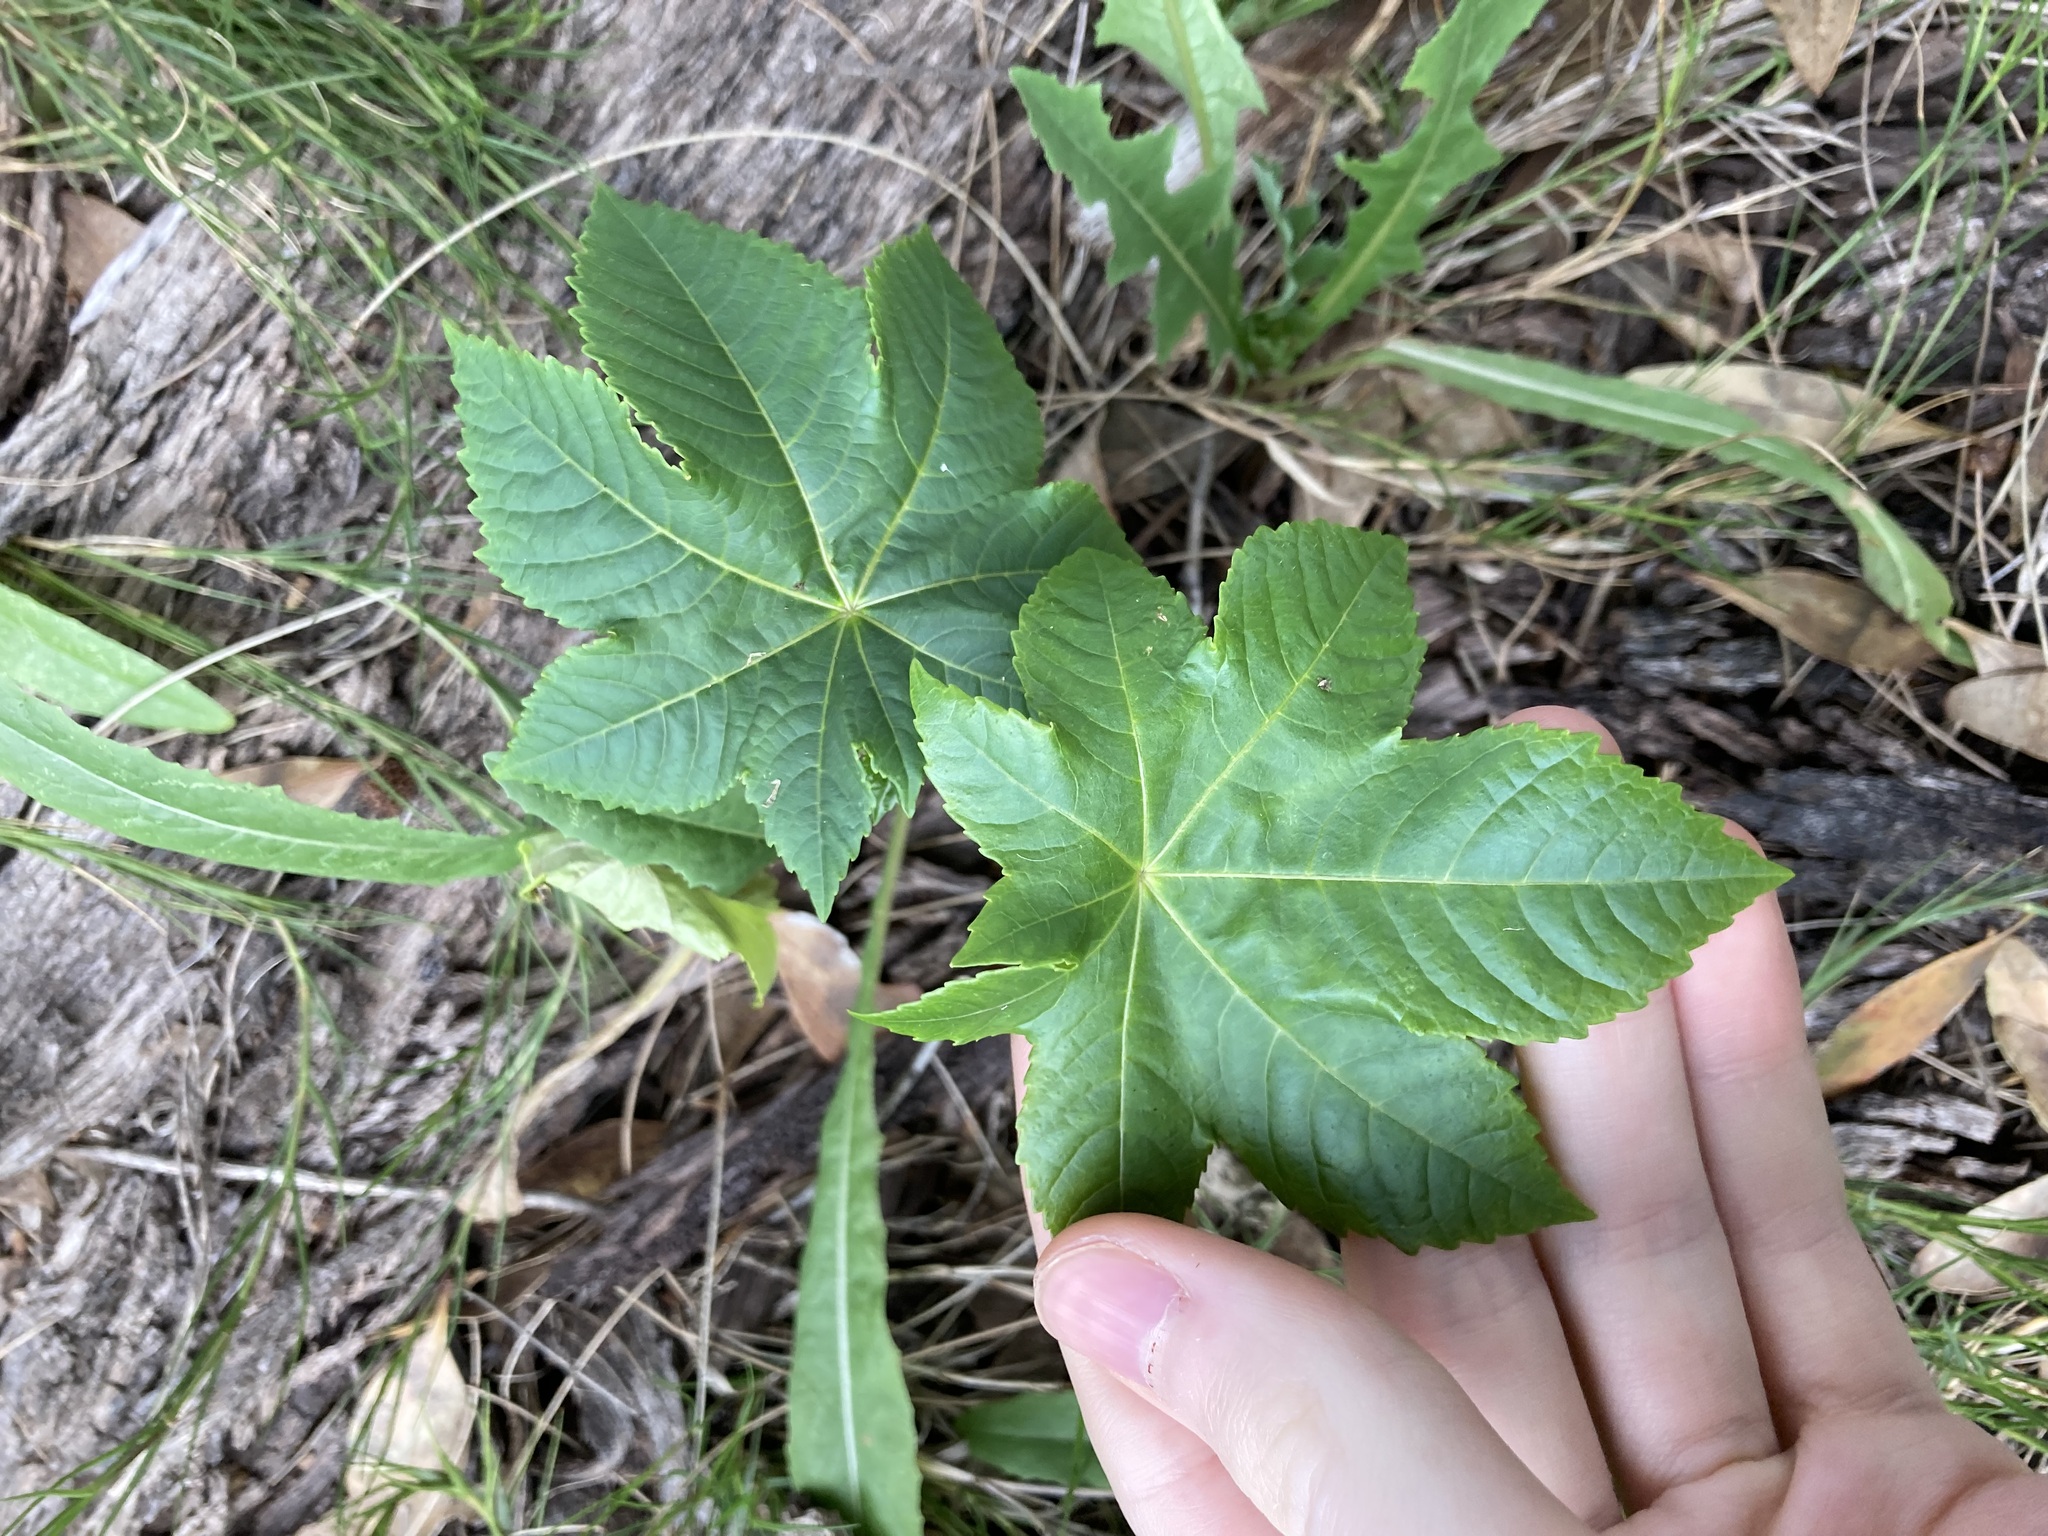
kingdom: Plantae
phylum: Tracheophyta
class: Magnoliopsida
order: Malpighiales
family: Euphorbiaceae
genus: Ricinus
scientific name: Ricinus communis
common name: Castor-oil-plant
